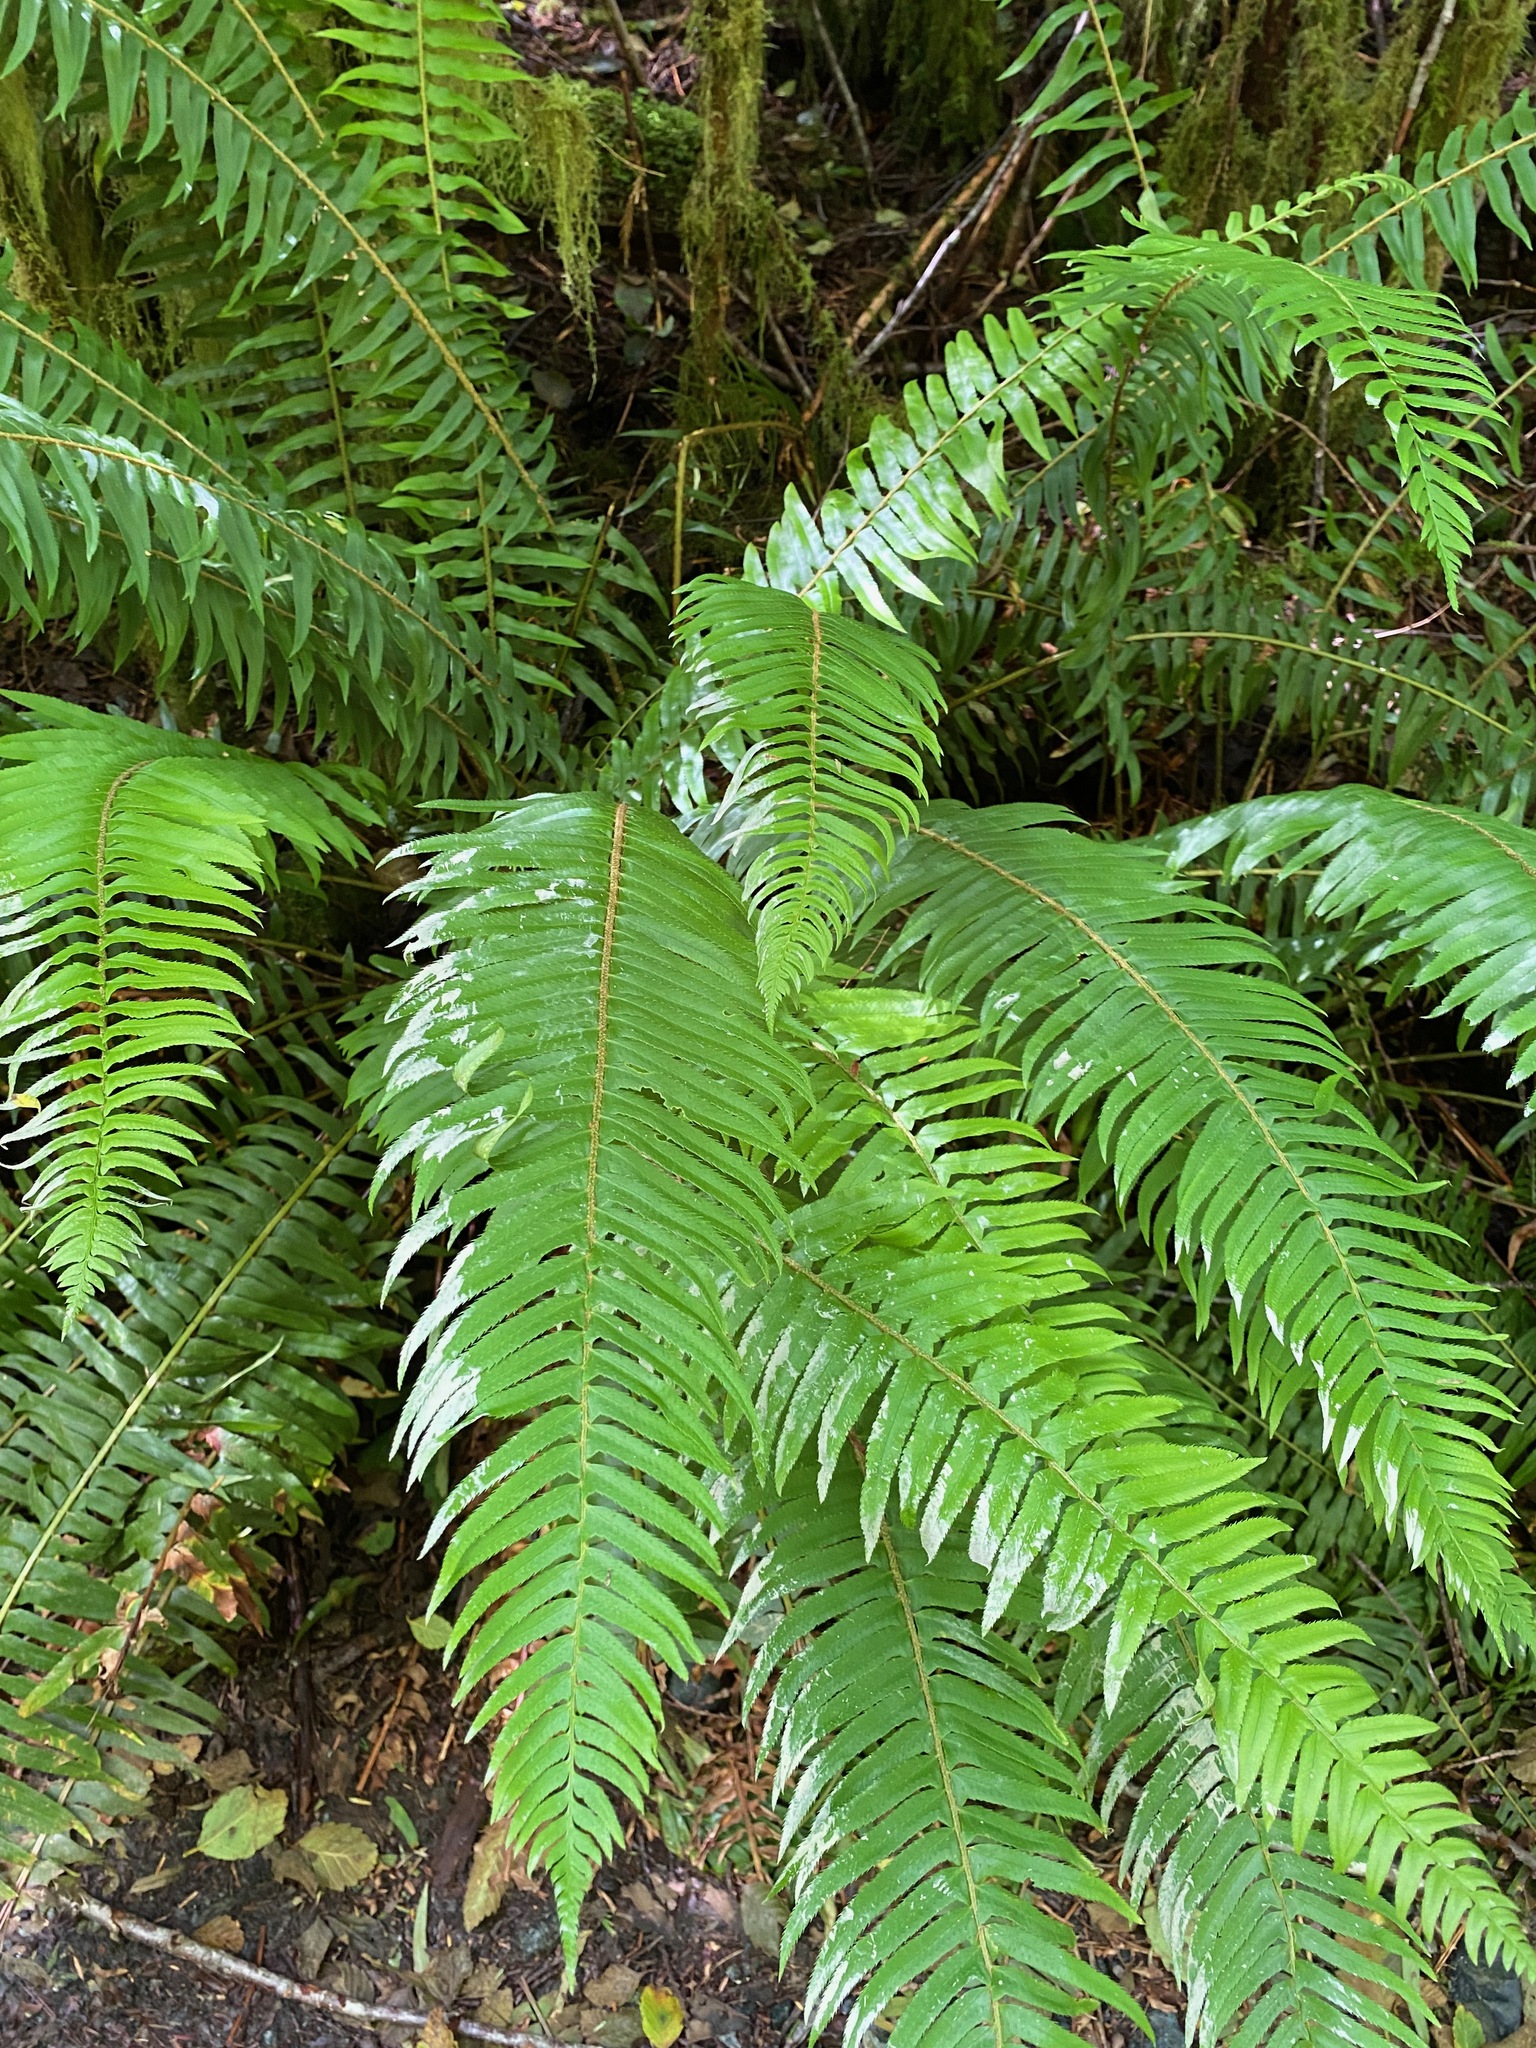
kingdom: Plantae
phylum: Tracheophyta
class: Polypodiopsida
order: Polypodiales
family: Dryopteridaceae
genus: Polystichum
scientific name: Polystichum munitum
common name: Western sword-fern
